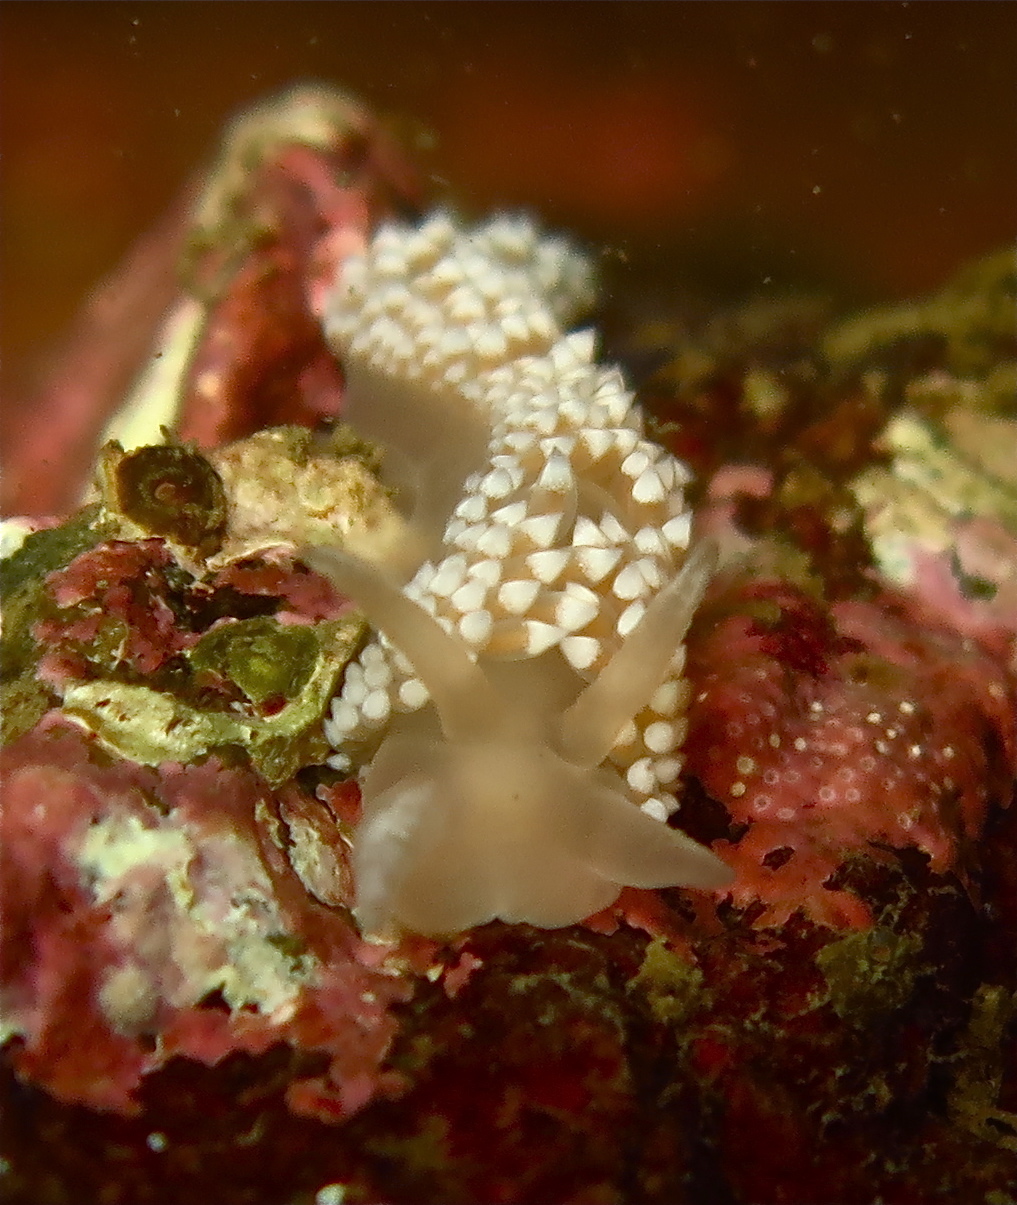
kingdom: Animalia
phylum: Mollusca
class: Gastropoda
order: Nudibranchia
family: Coryphellidae
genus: Coryphella
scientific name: Coryphella verrucosa
